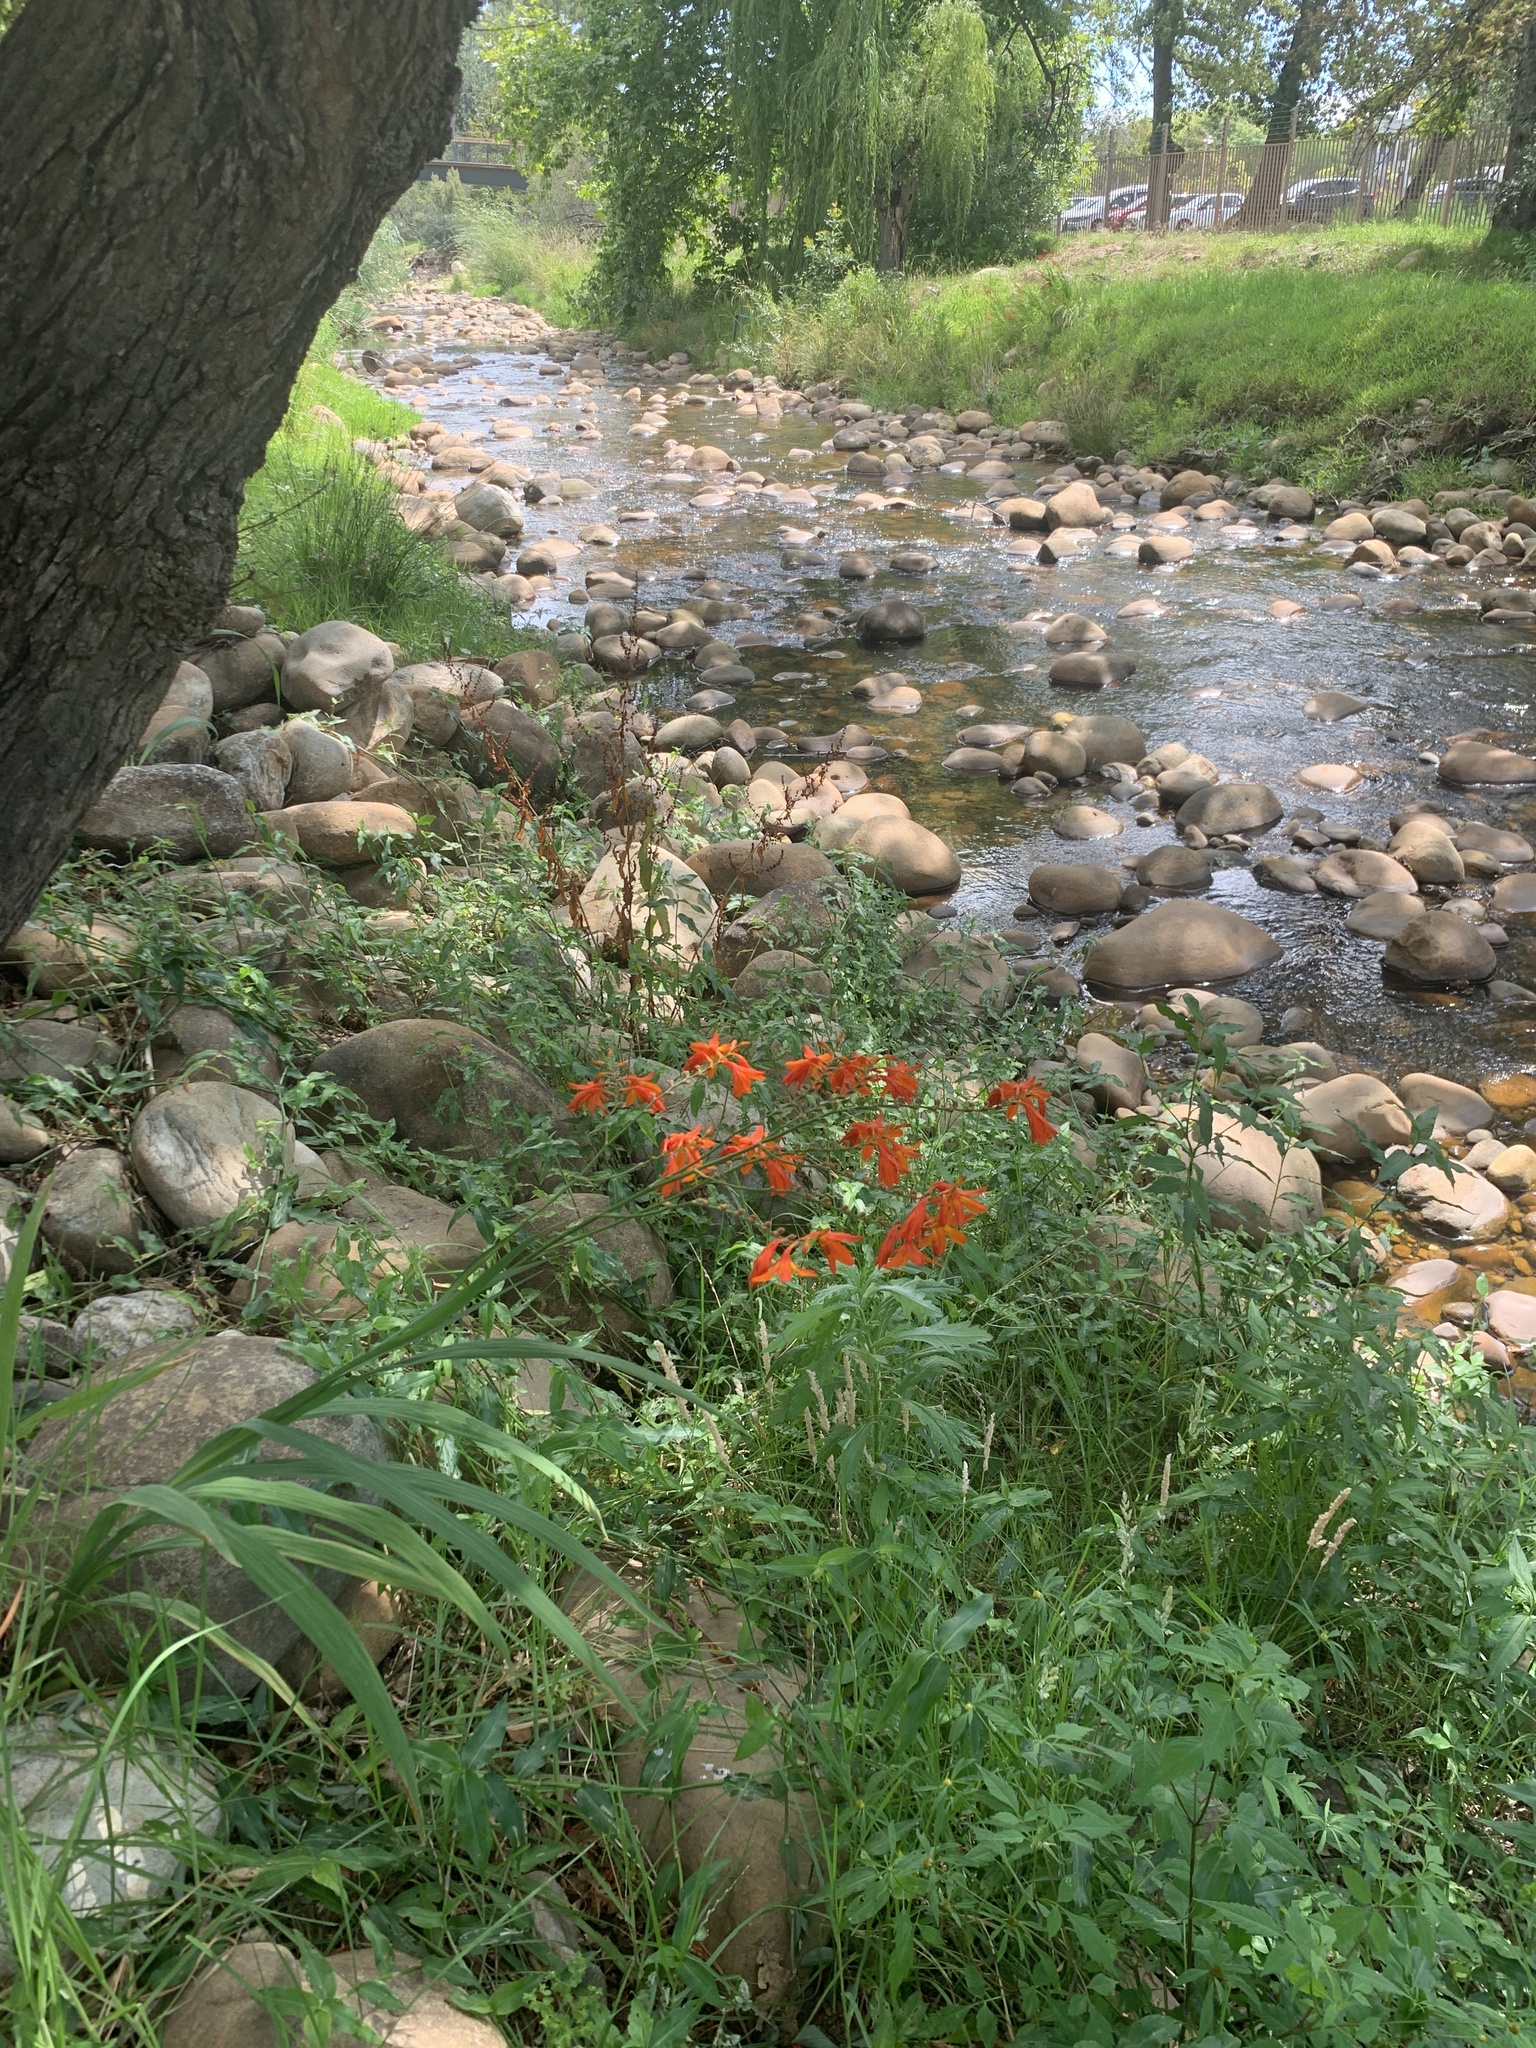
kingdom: Plantae
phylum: Tracheophyta
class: Liliopsida
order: Asparagales
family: Iridaceae
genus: Crocosmia
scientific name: Crocosmia crocosmiiflora
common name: Montbretia
